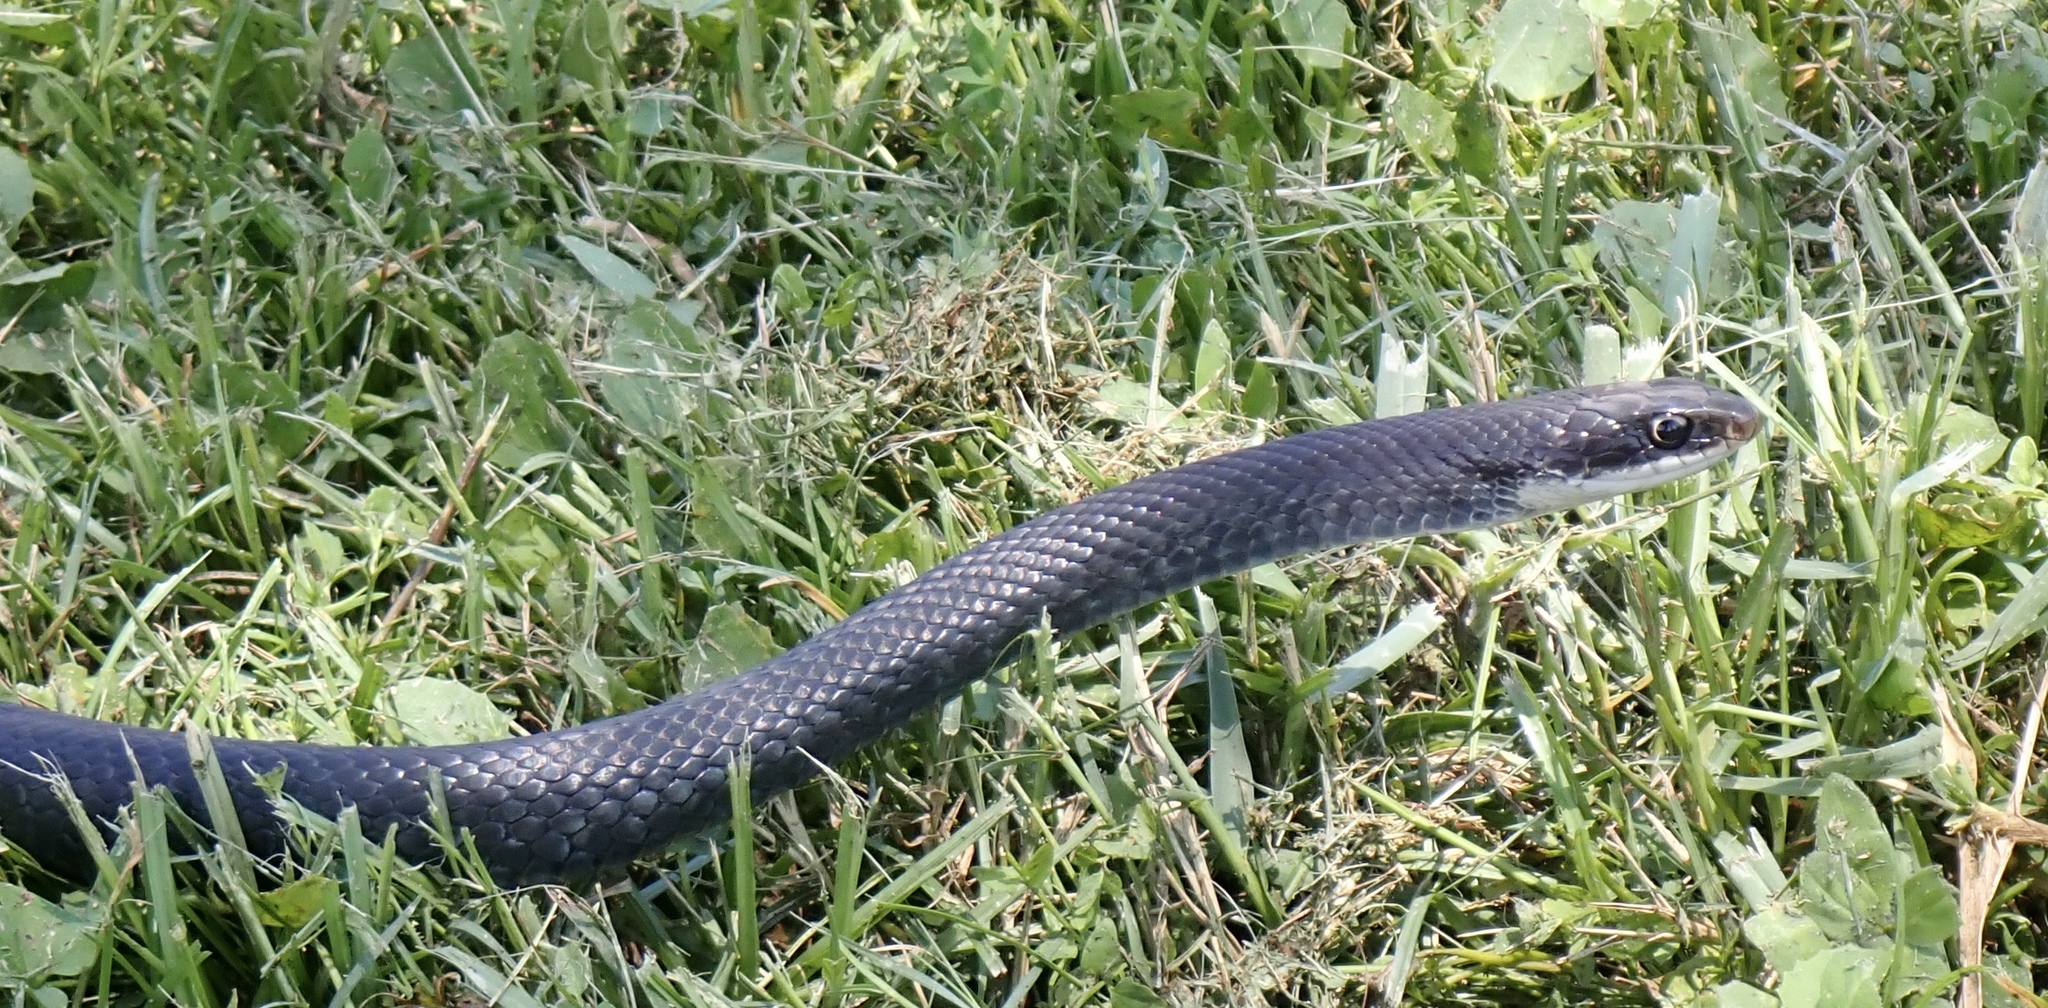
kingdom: Animalia
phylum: Chordata
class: Squamata
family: Colubridae
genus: Coluber
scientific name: Coluber constrictor
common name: Eastern racer
